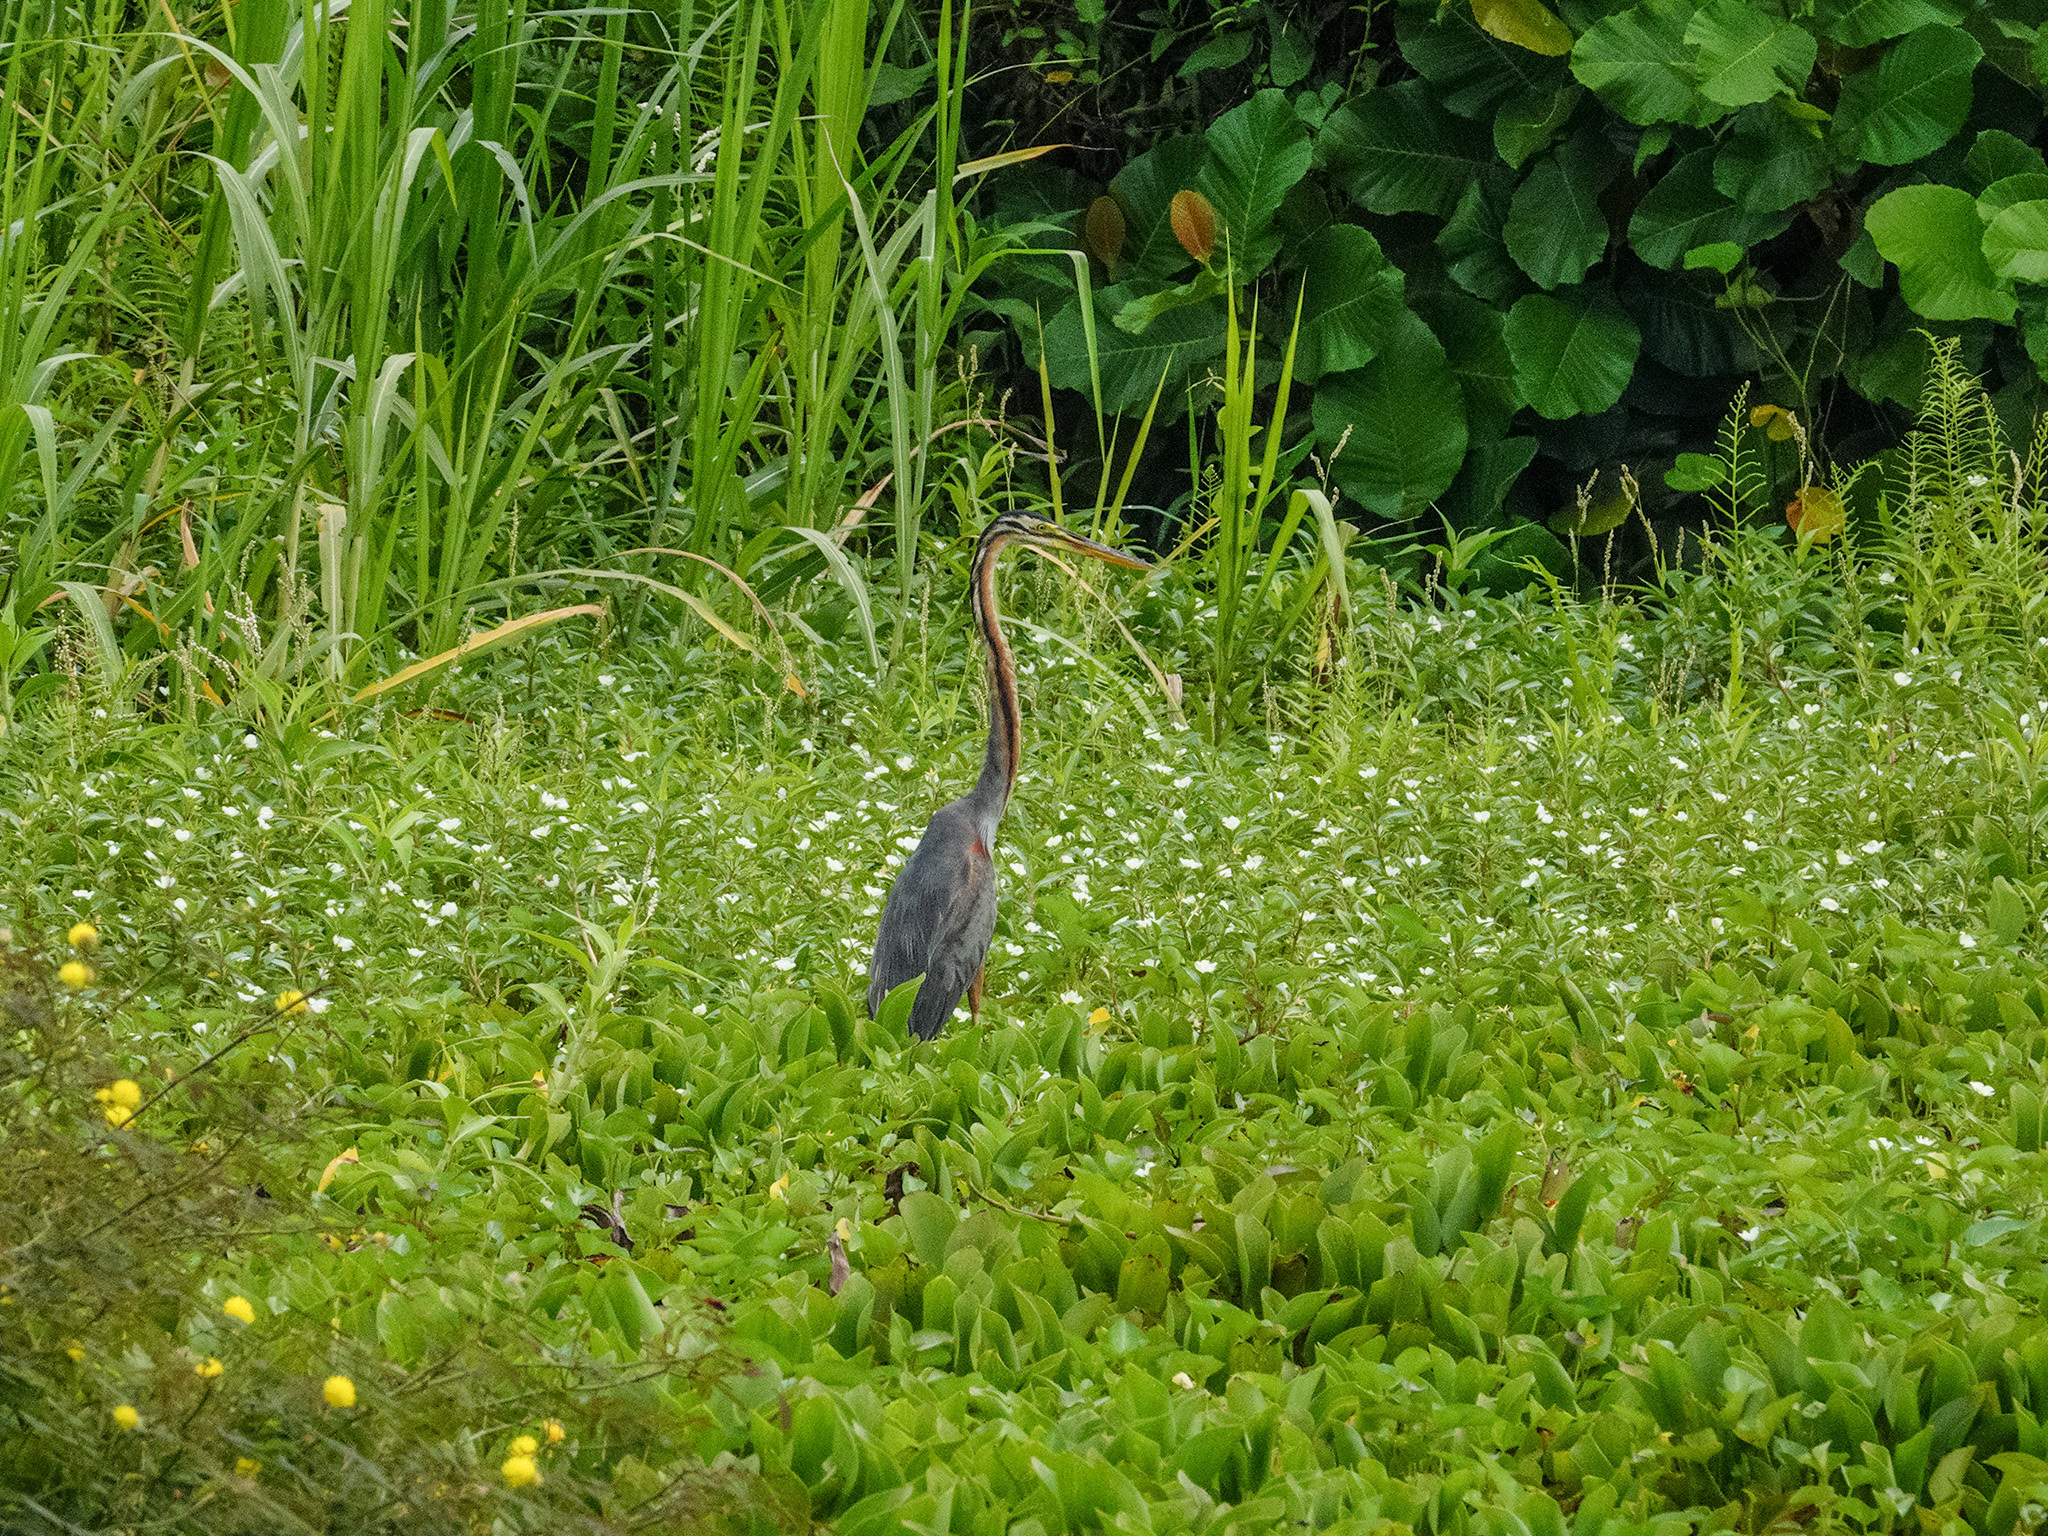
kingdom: Animalia
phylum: Chordata
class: Aves
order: Pelecaniformes
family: Ardeidae
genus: Ardea
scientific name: Ardea purpurea
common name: Purple heron
